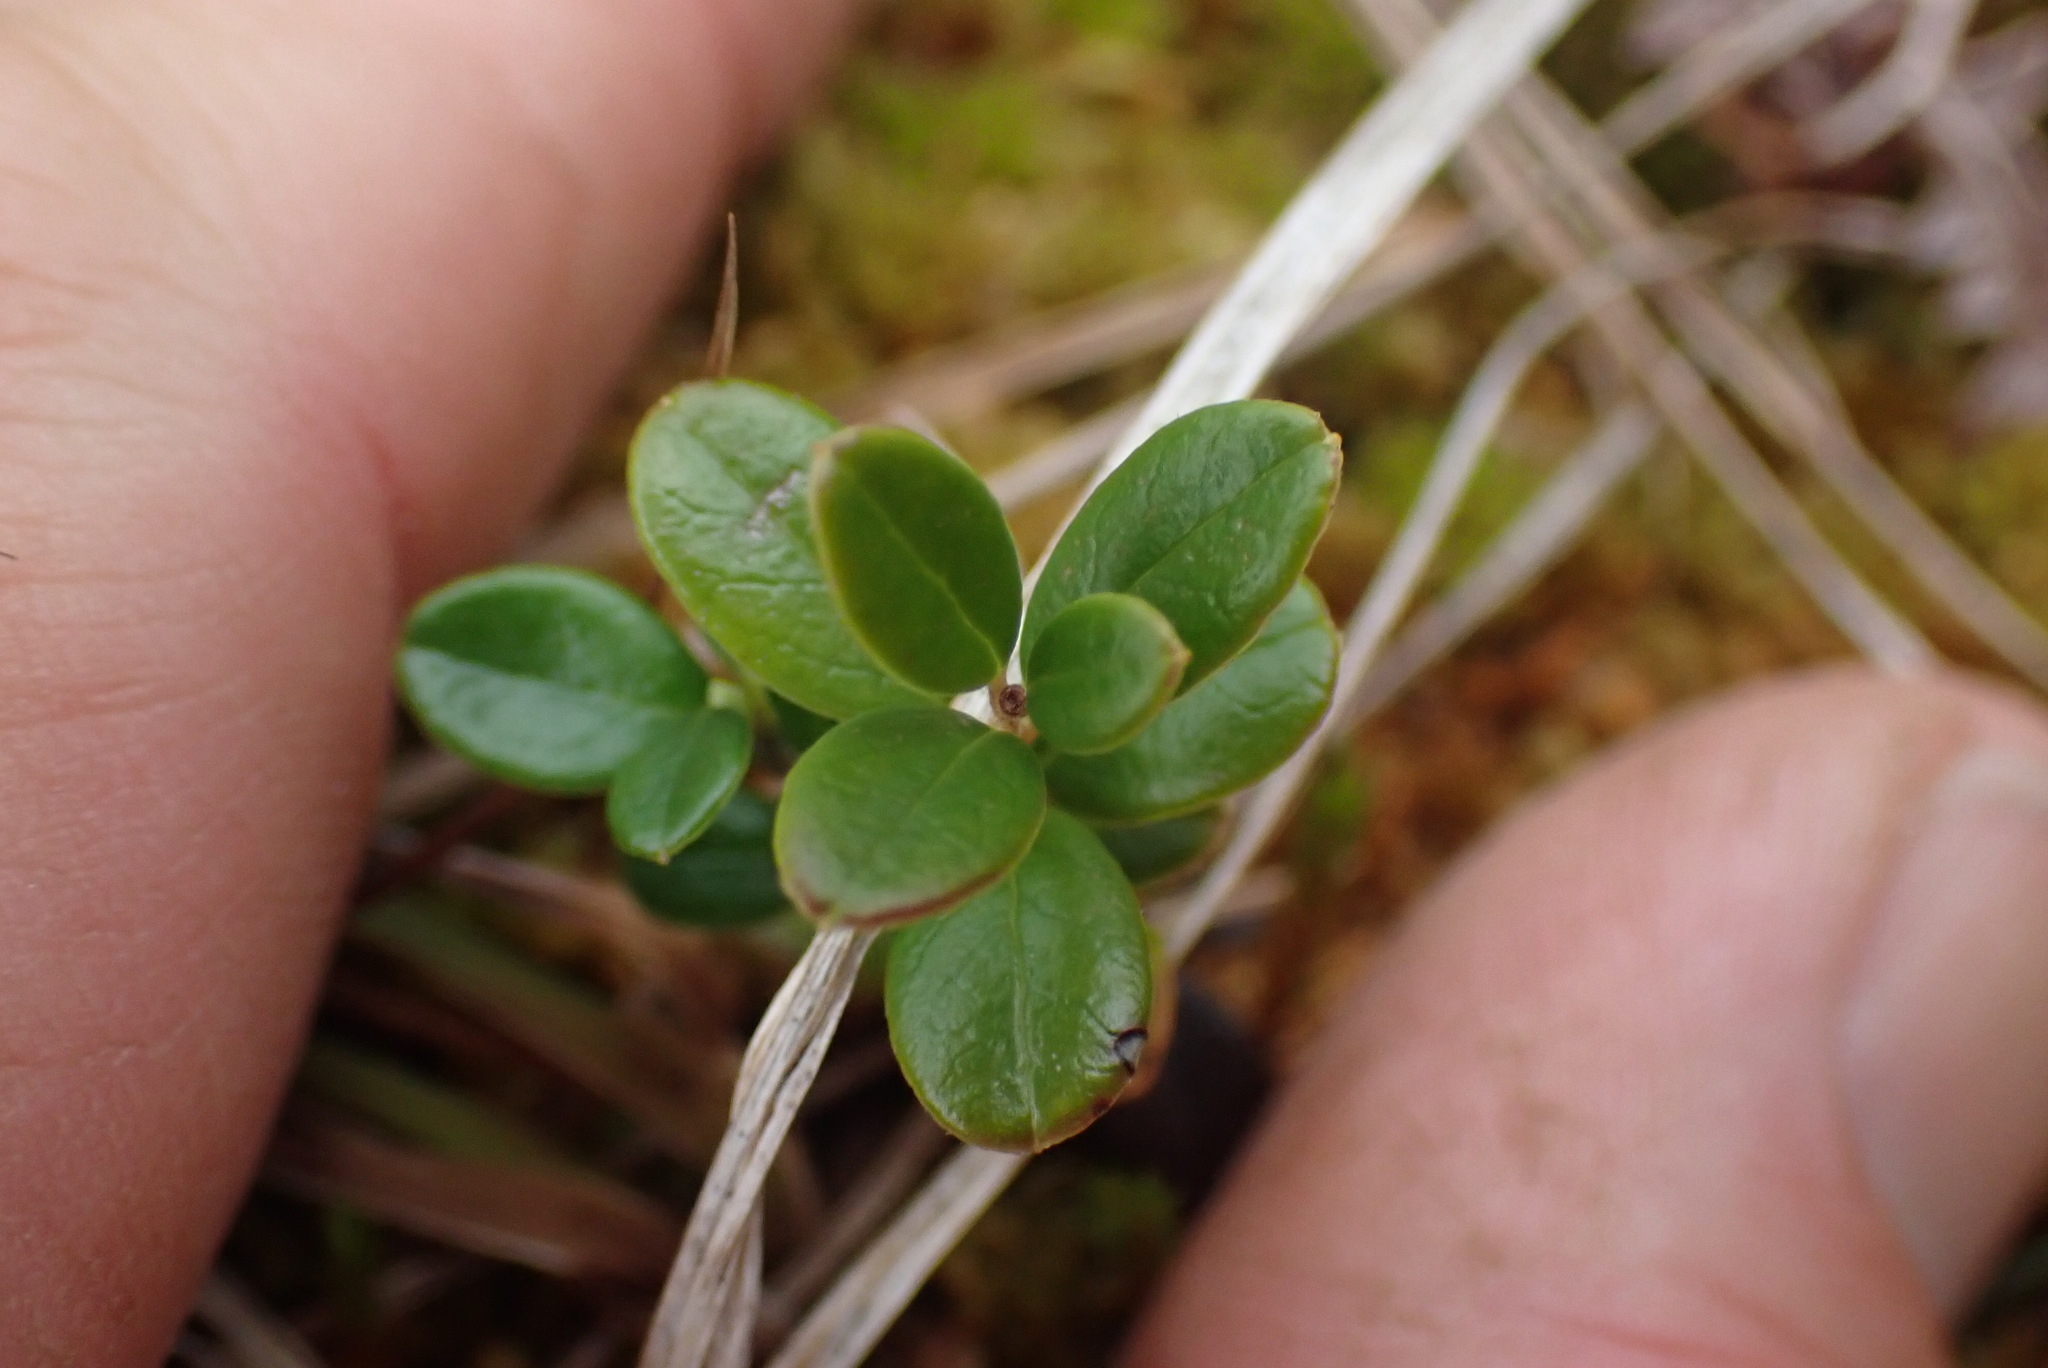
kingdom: Plantae
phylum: Tracheophyta
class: Magnoliopsida
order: Ericales
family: Ericaceae
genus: Vaccinium
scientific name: Vaccinium vitis-idaea
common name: Cowberry
